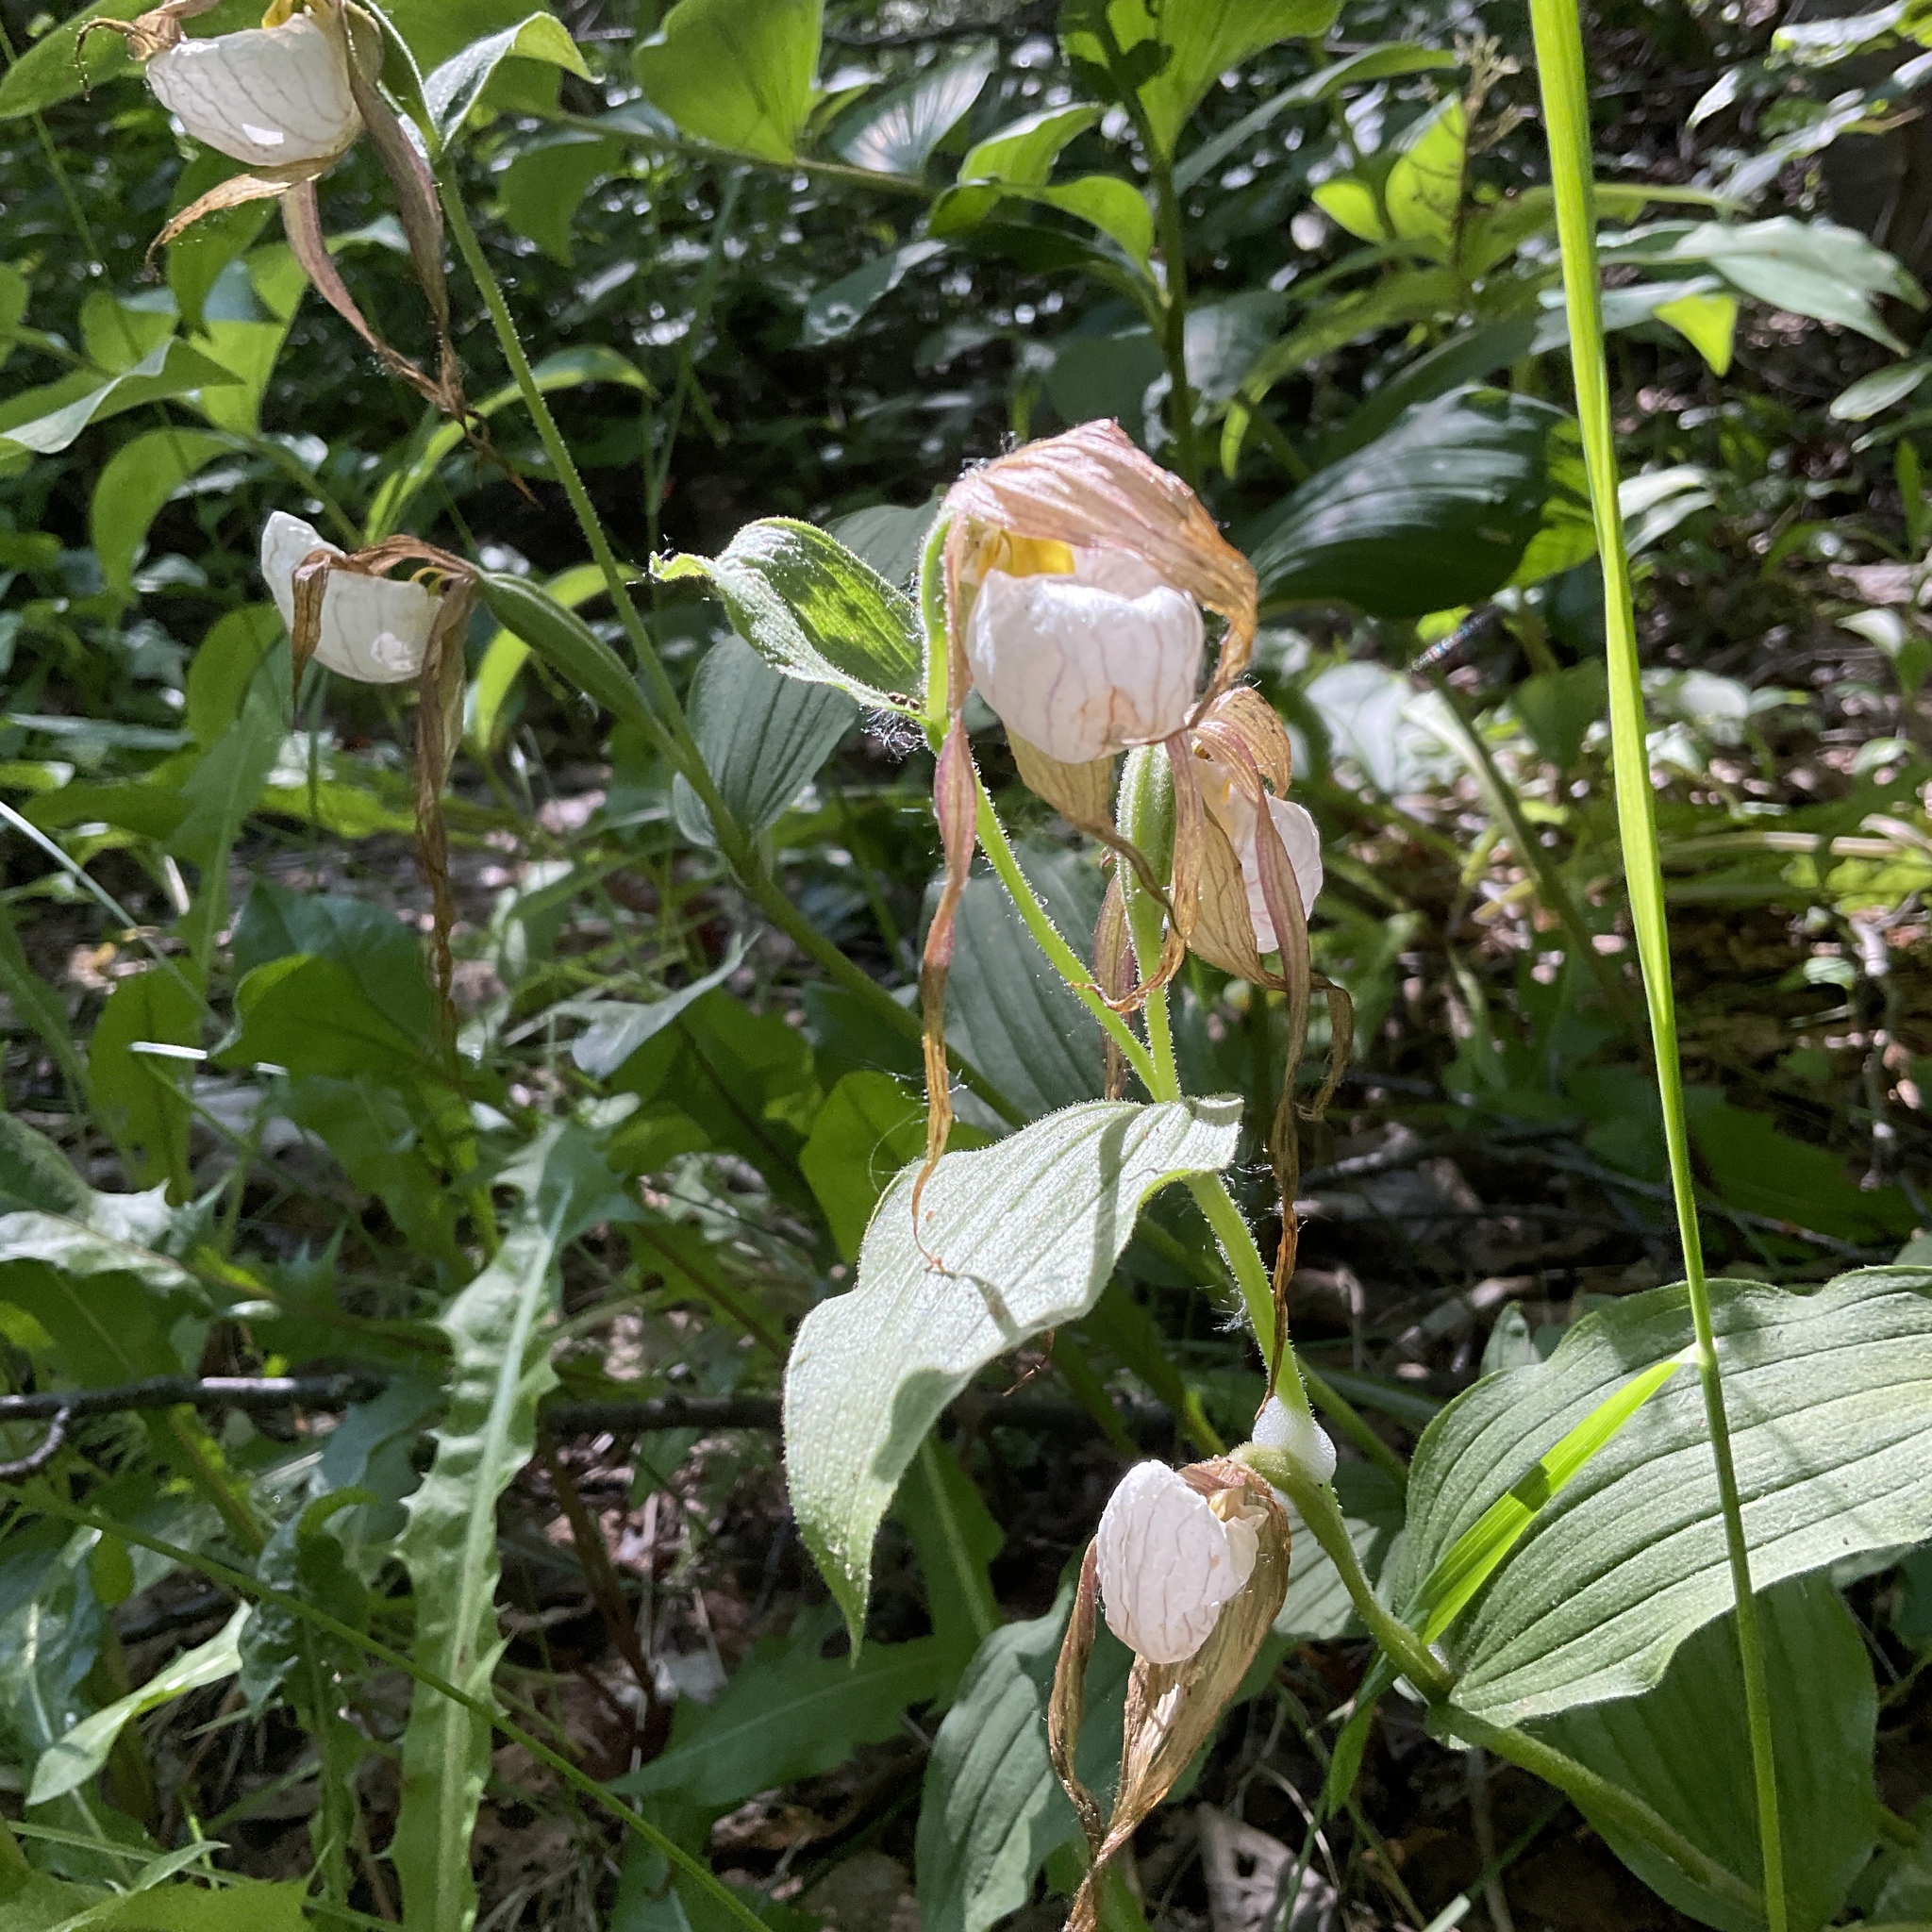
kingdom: Plantae
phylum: Tracheophyta
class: Liliopsida
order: Asparagales
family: Orchidaceae
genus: Cypripedium
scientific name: Cypripedium montanum
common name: Mountain lady's-slipper
